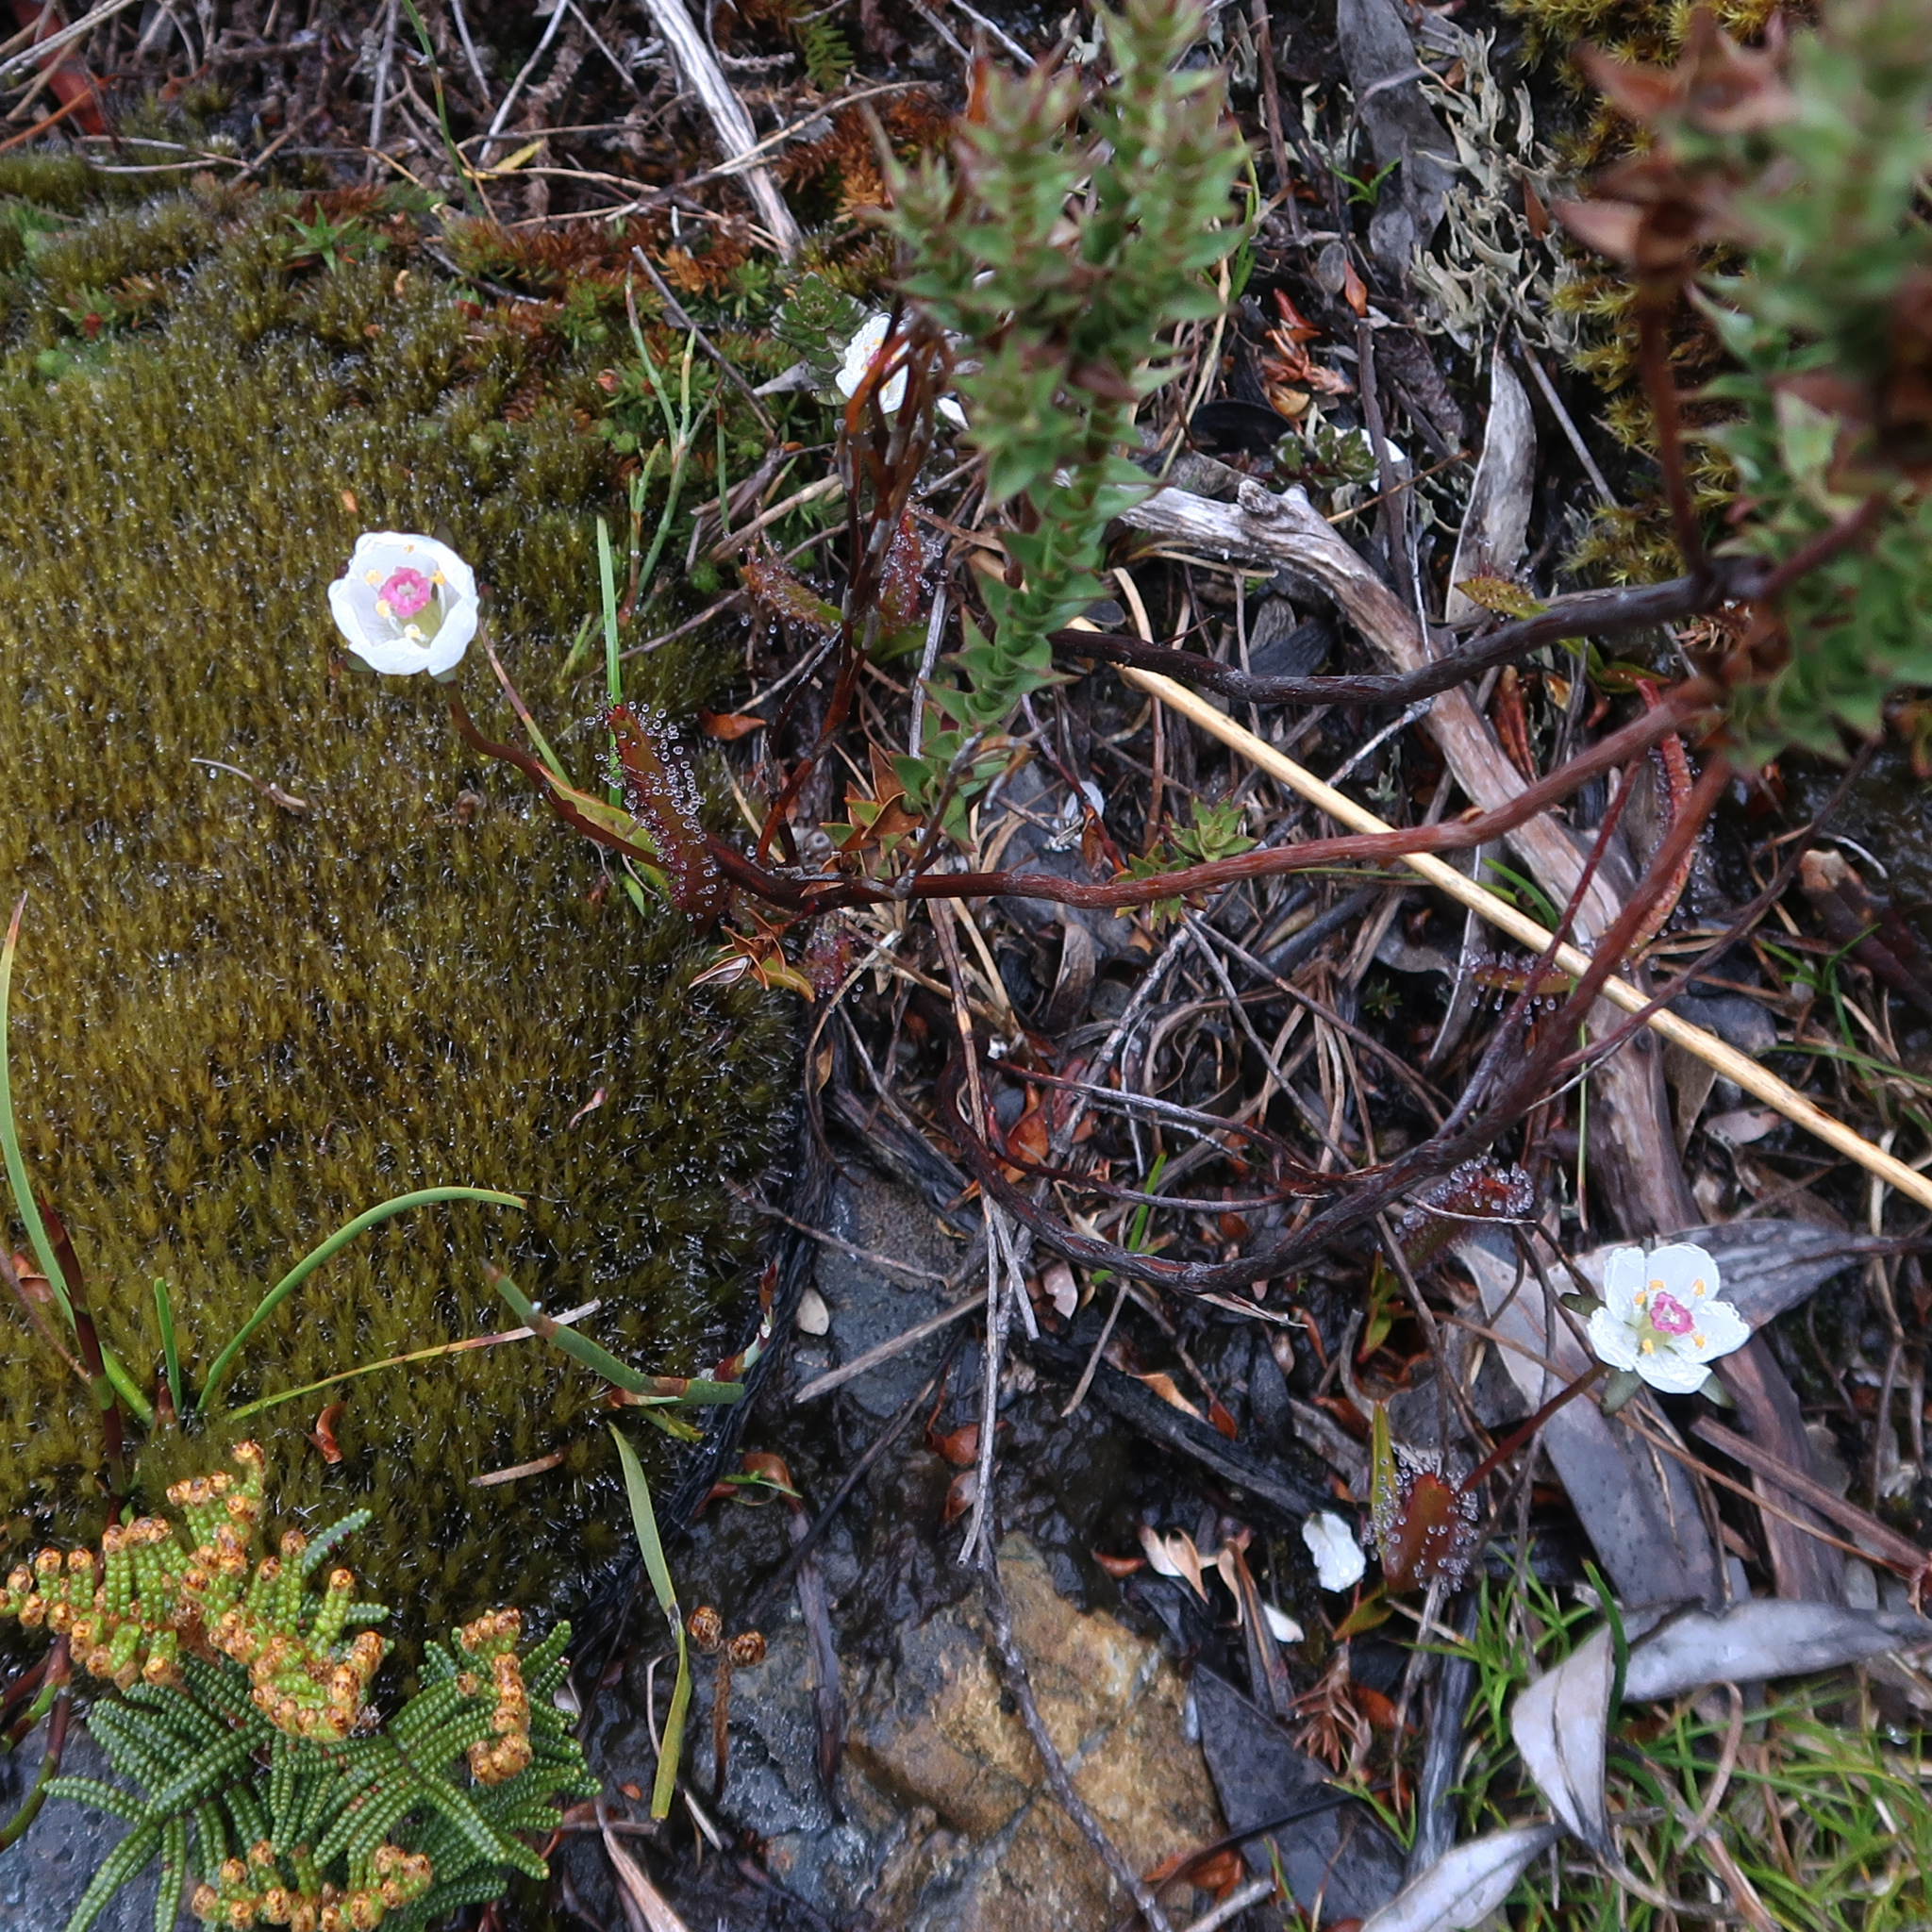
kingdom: Plantae
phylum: Tracheophyta
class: Magnoliopsida
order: Caryophyllales
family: Droseraceae
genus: Drosera
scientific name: Drosera murfetii
